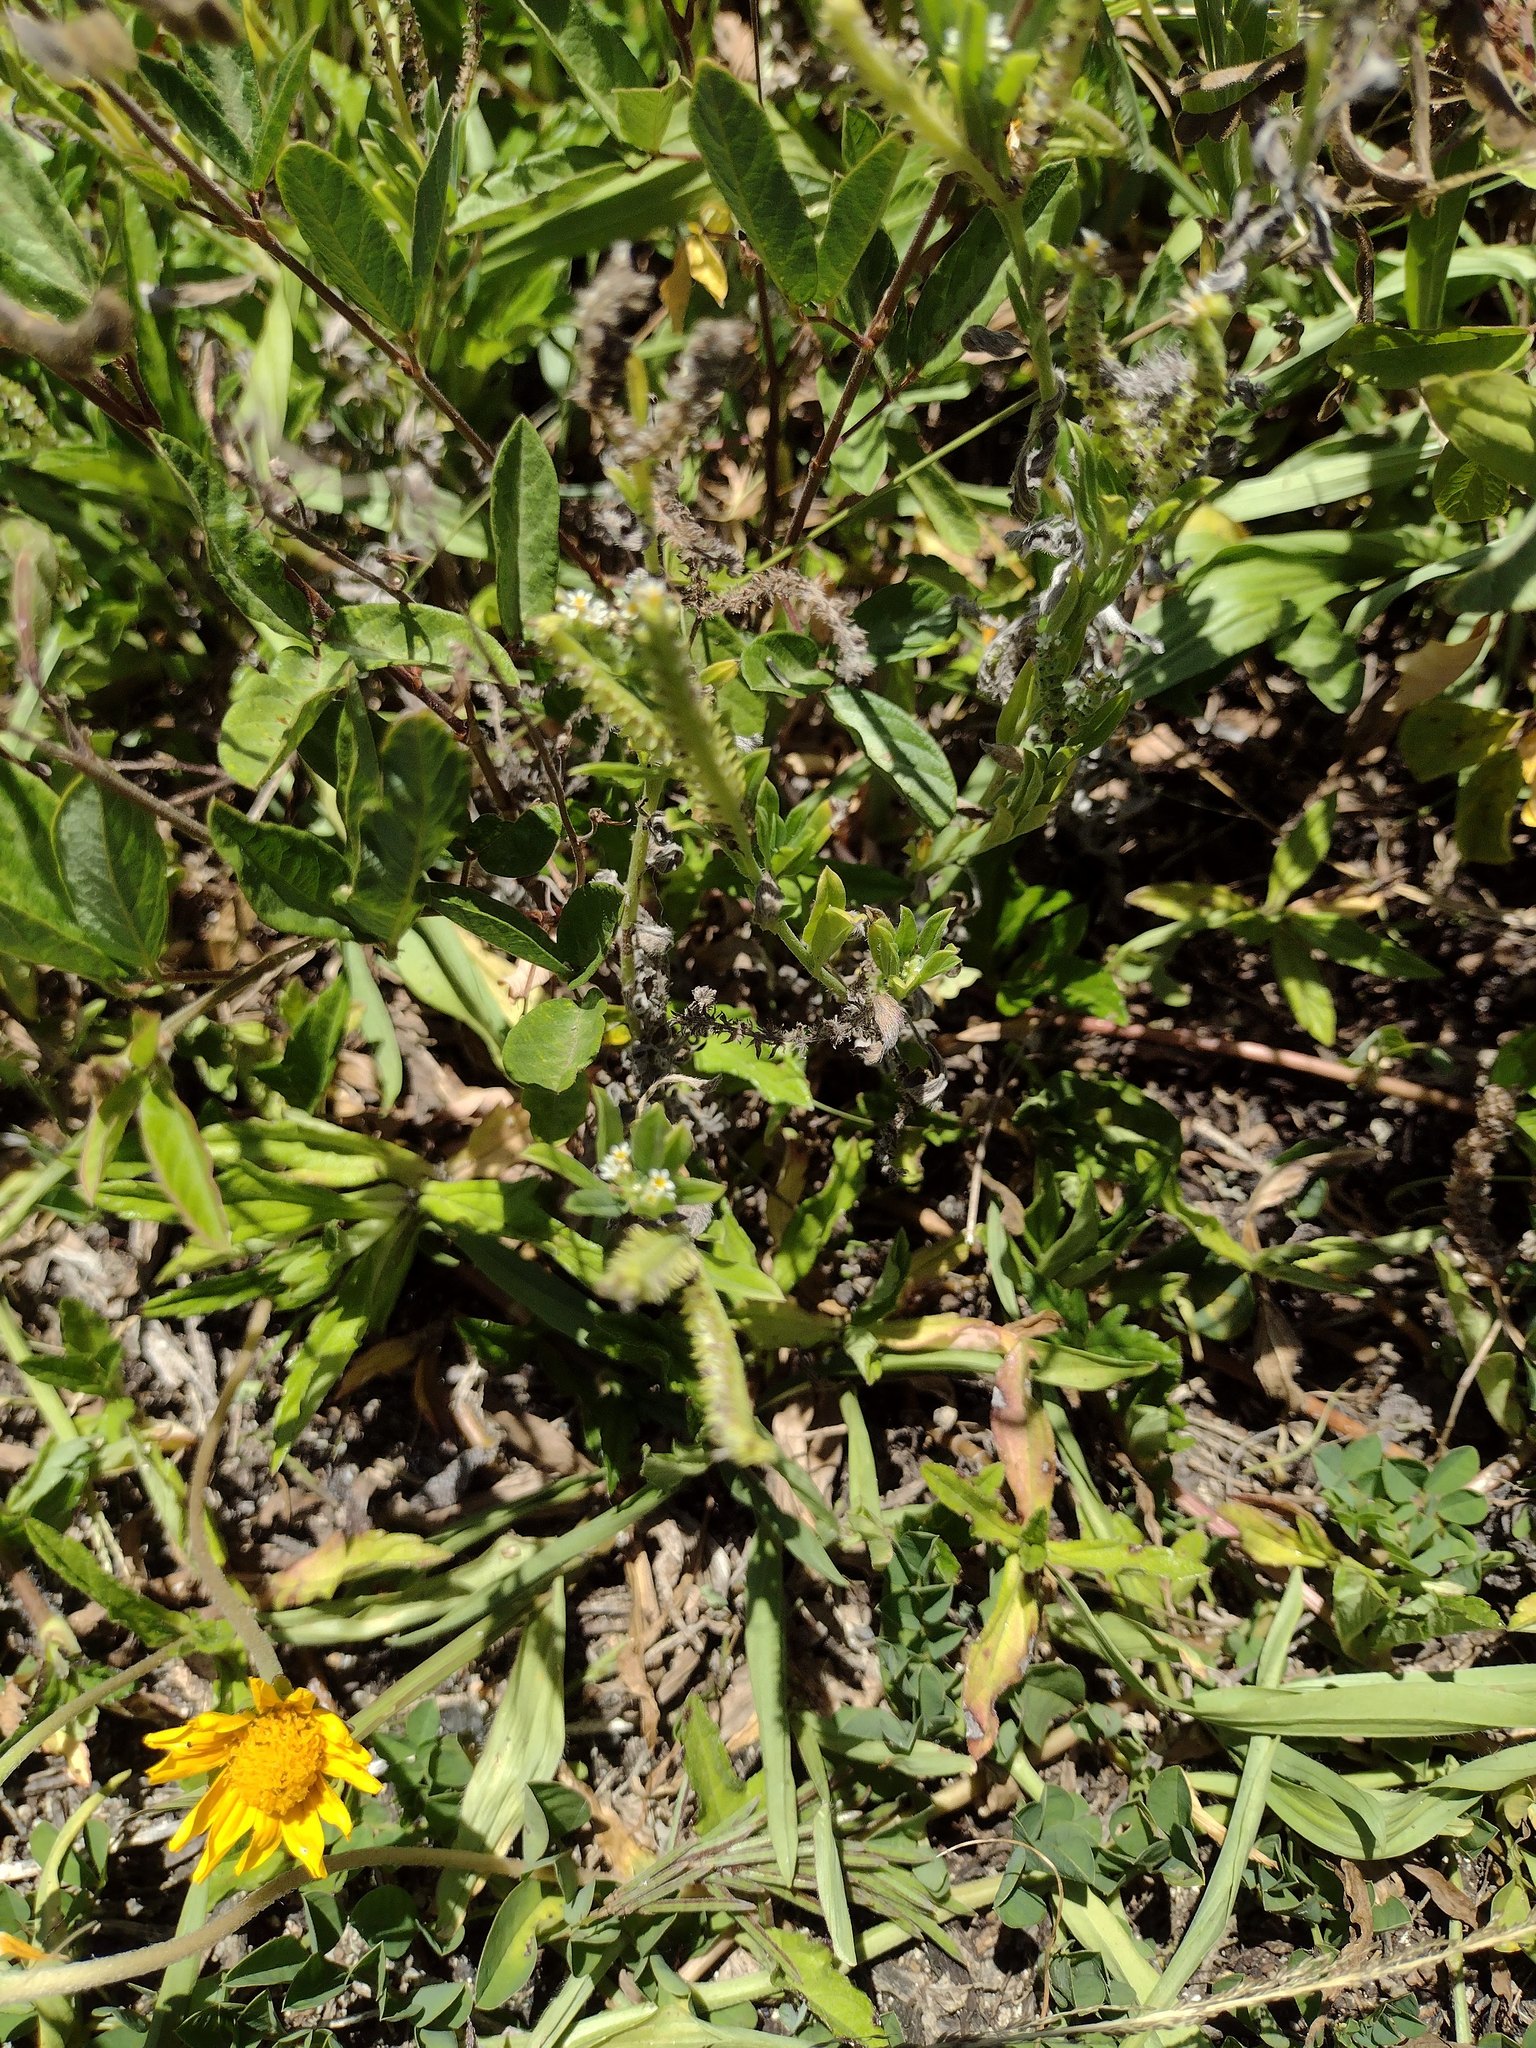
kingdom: Plantae
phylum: Tracheophyta
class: Liliopsida
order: Poales
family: Poaceae
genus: Paspalum
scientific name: Paspalum fimbriatum
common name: Panama crowngrass
